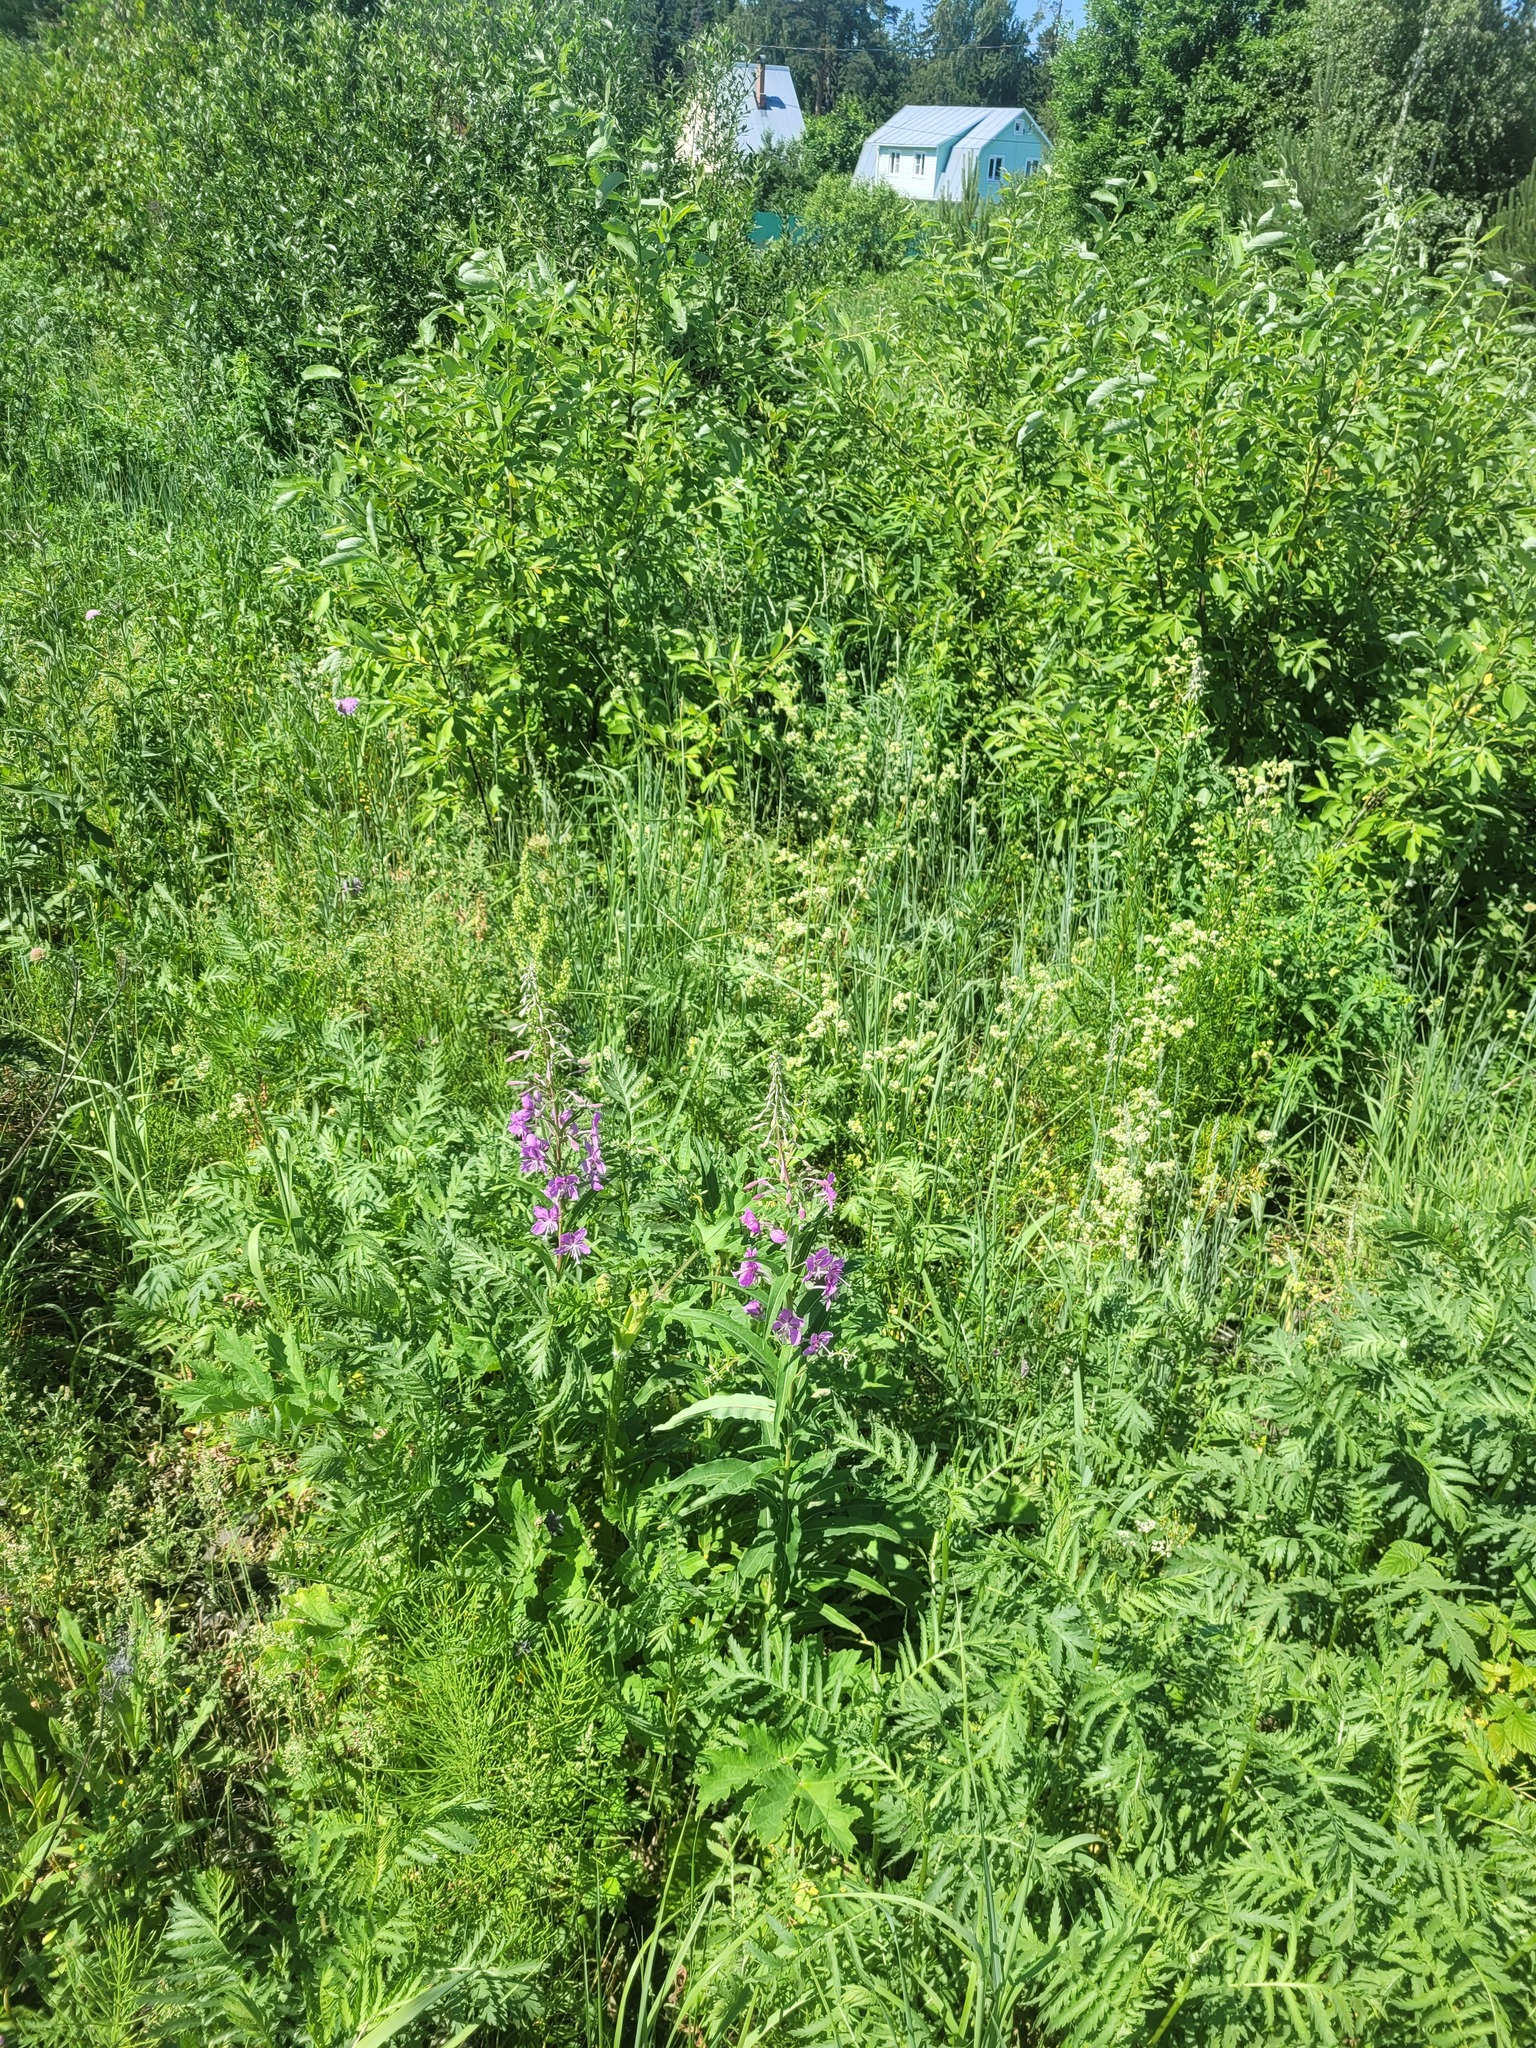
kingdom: Plantae
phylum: Tracheophyta
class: Magnoliopsida
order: Myrtales
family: Onagraceae
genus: Chamaenerion
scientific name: Chamaenerion angustifolium
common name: Fireweed
